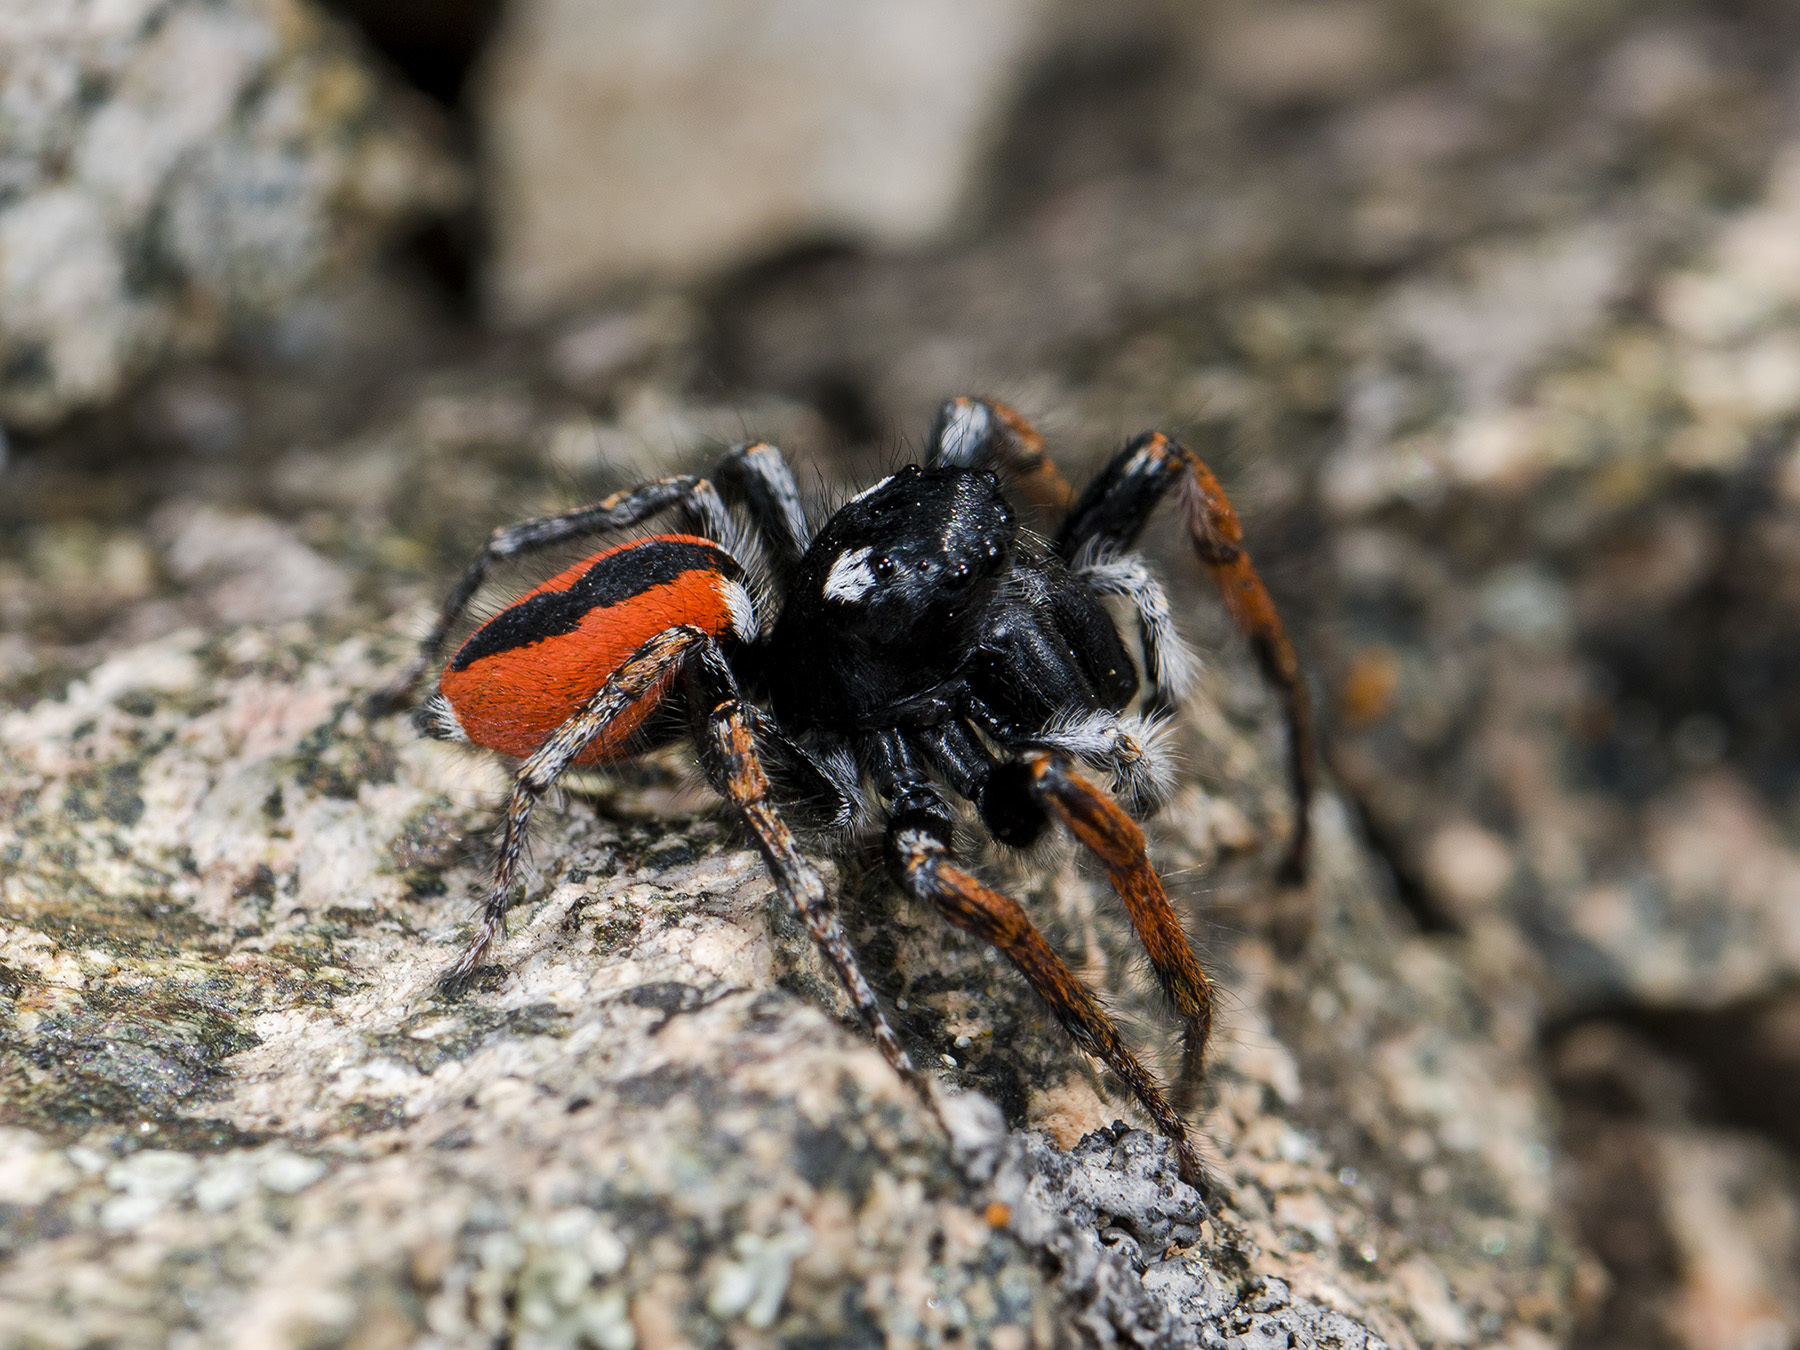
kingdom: Animalia
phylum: Arthropoda
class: Arachnida
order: Araneae
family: Salticidae
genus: Philaeus
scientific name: Philaeus chrysops
